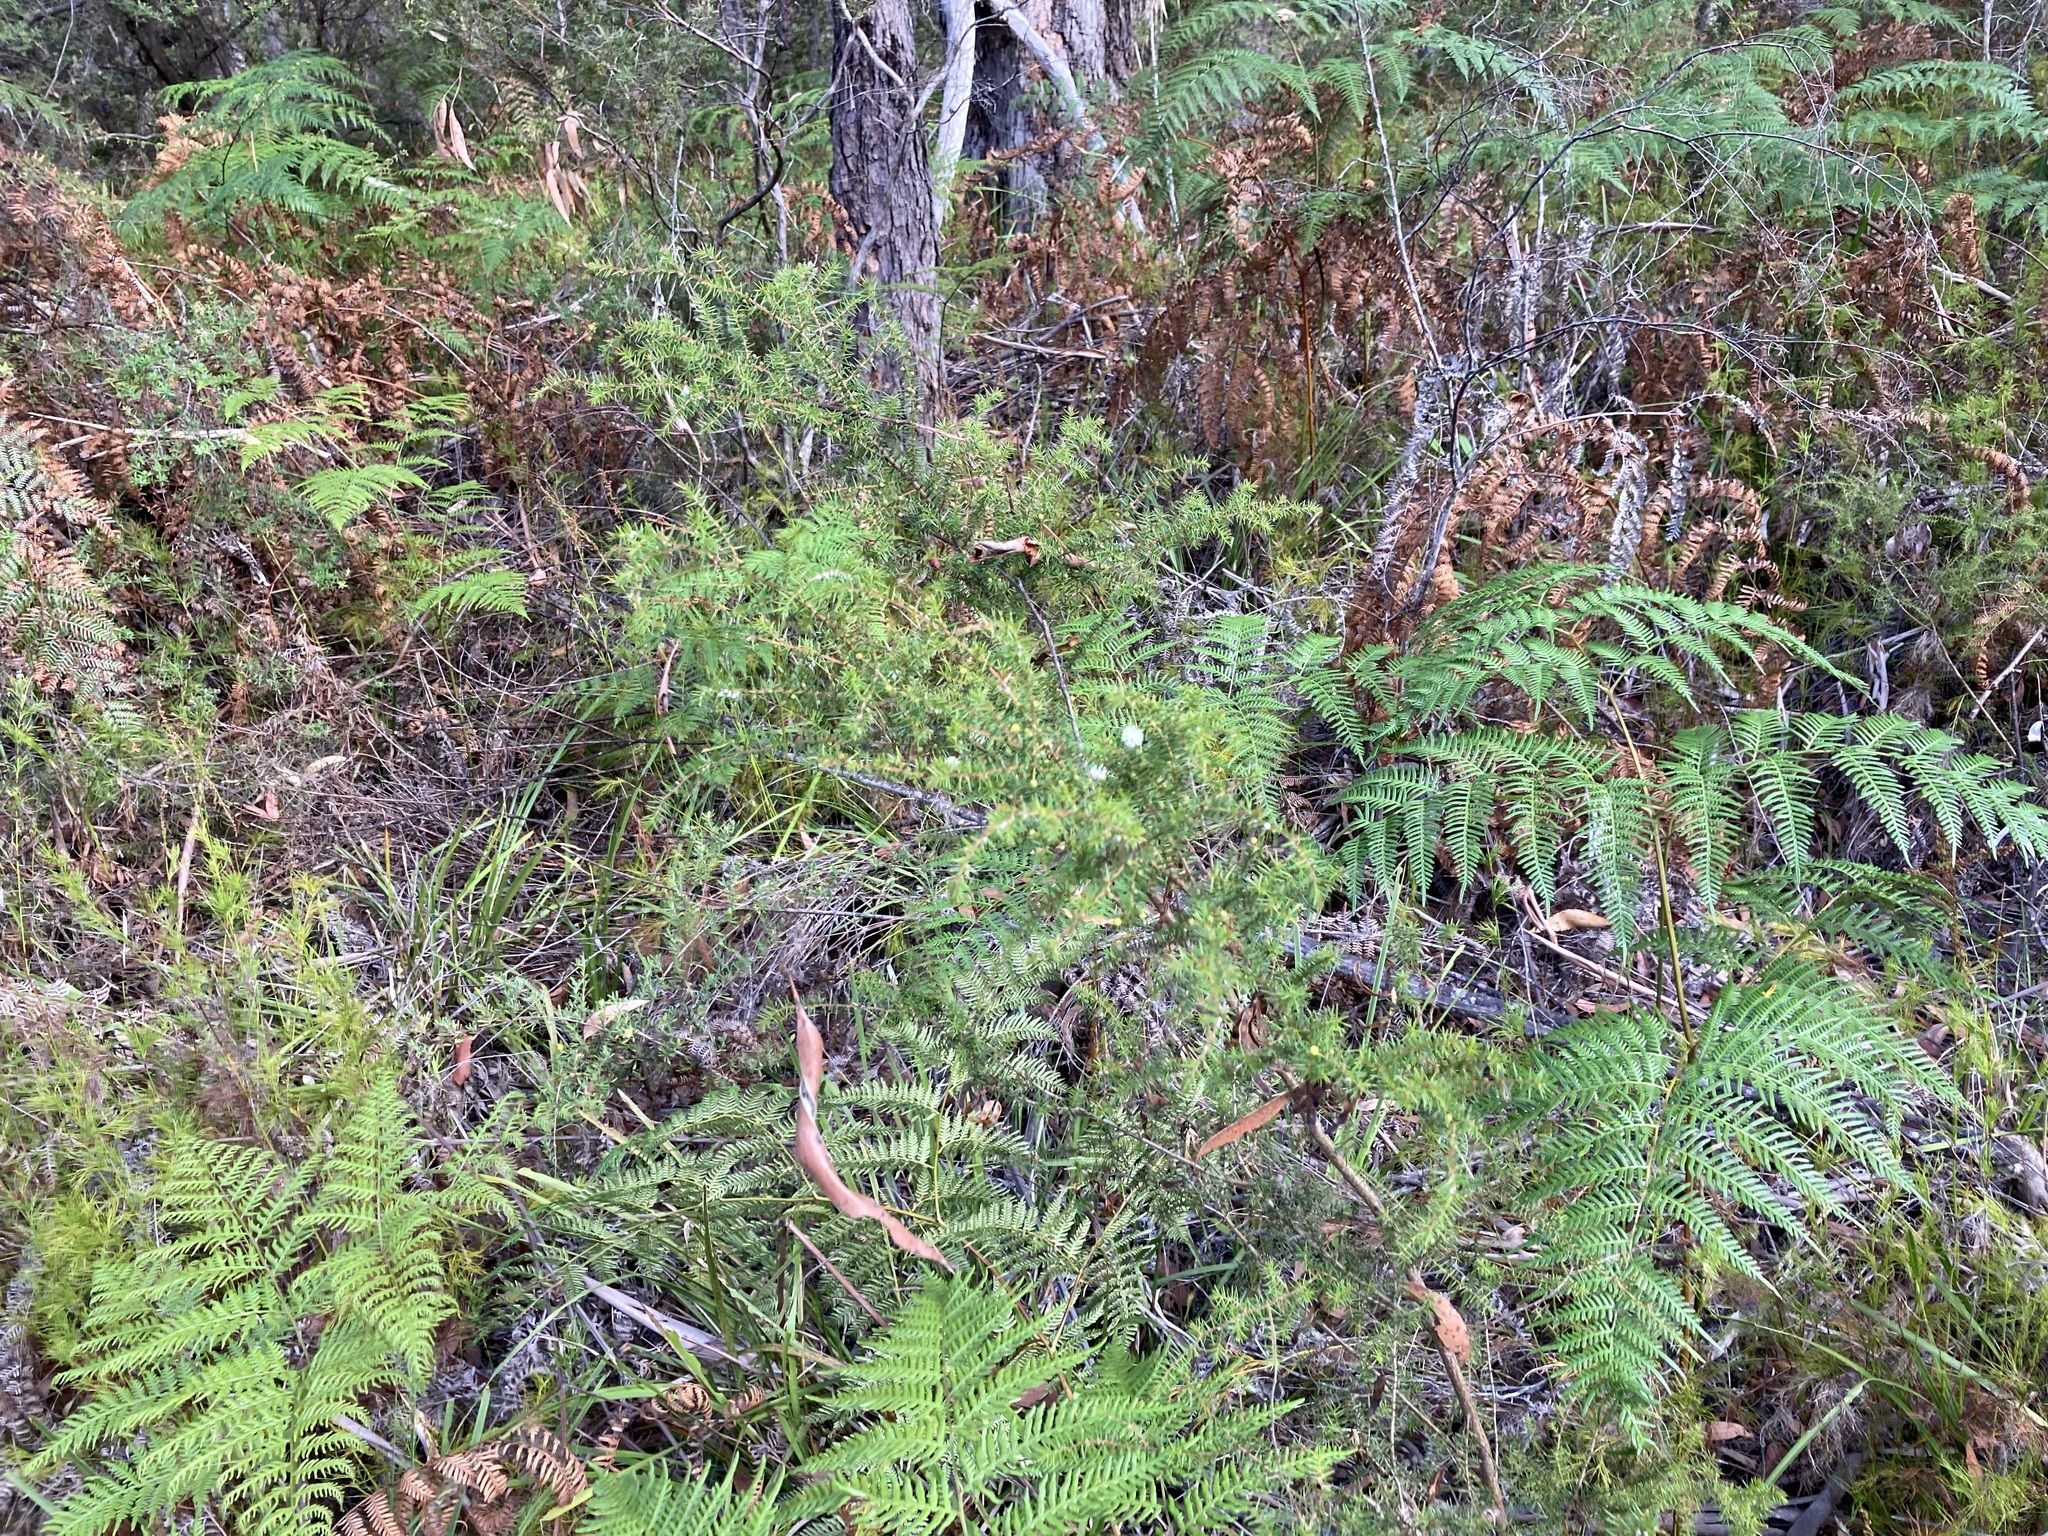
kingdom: Plantae
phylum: Tracheophyta
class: Magnoliopsida
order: Fabales
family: Fabaceae
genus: Acacia
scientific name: Acacia ulicifolia
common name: Juniper wattle
